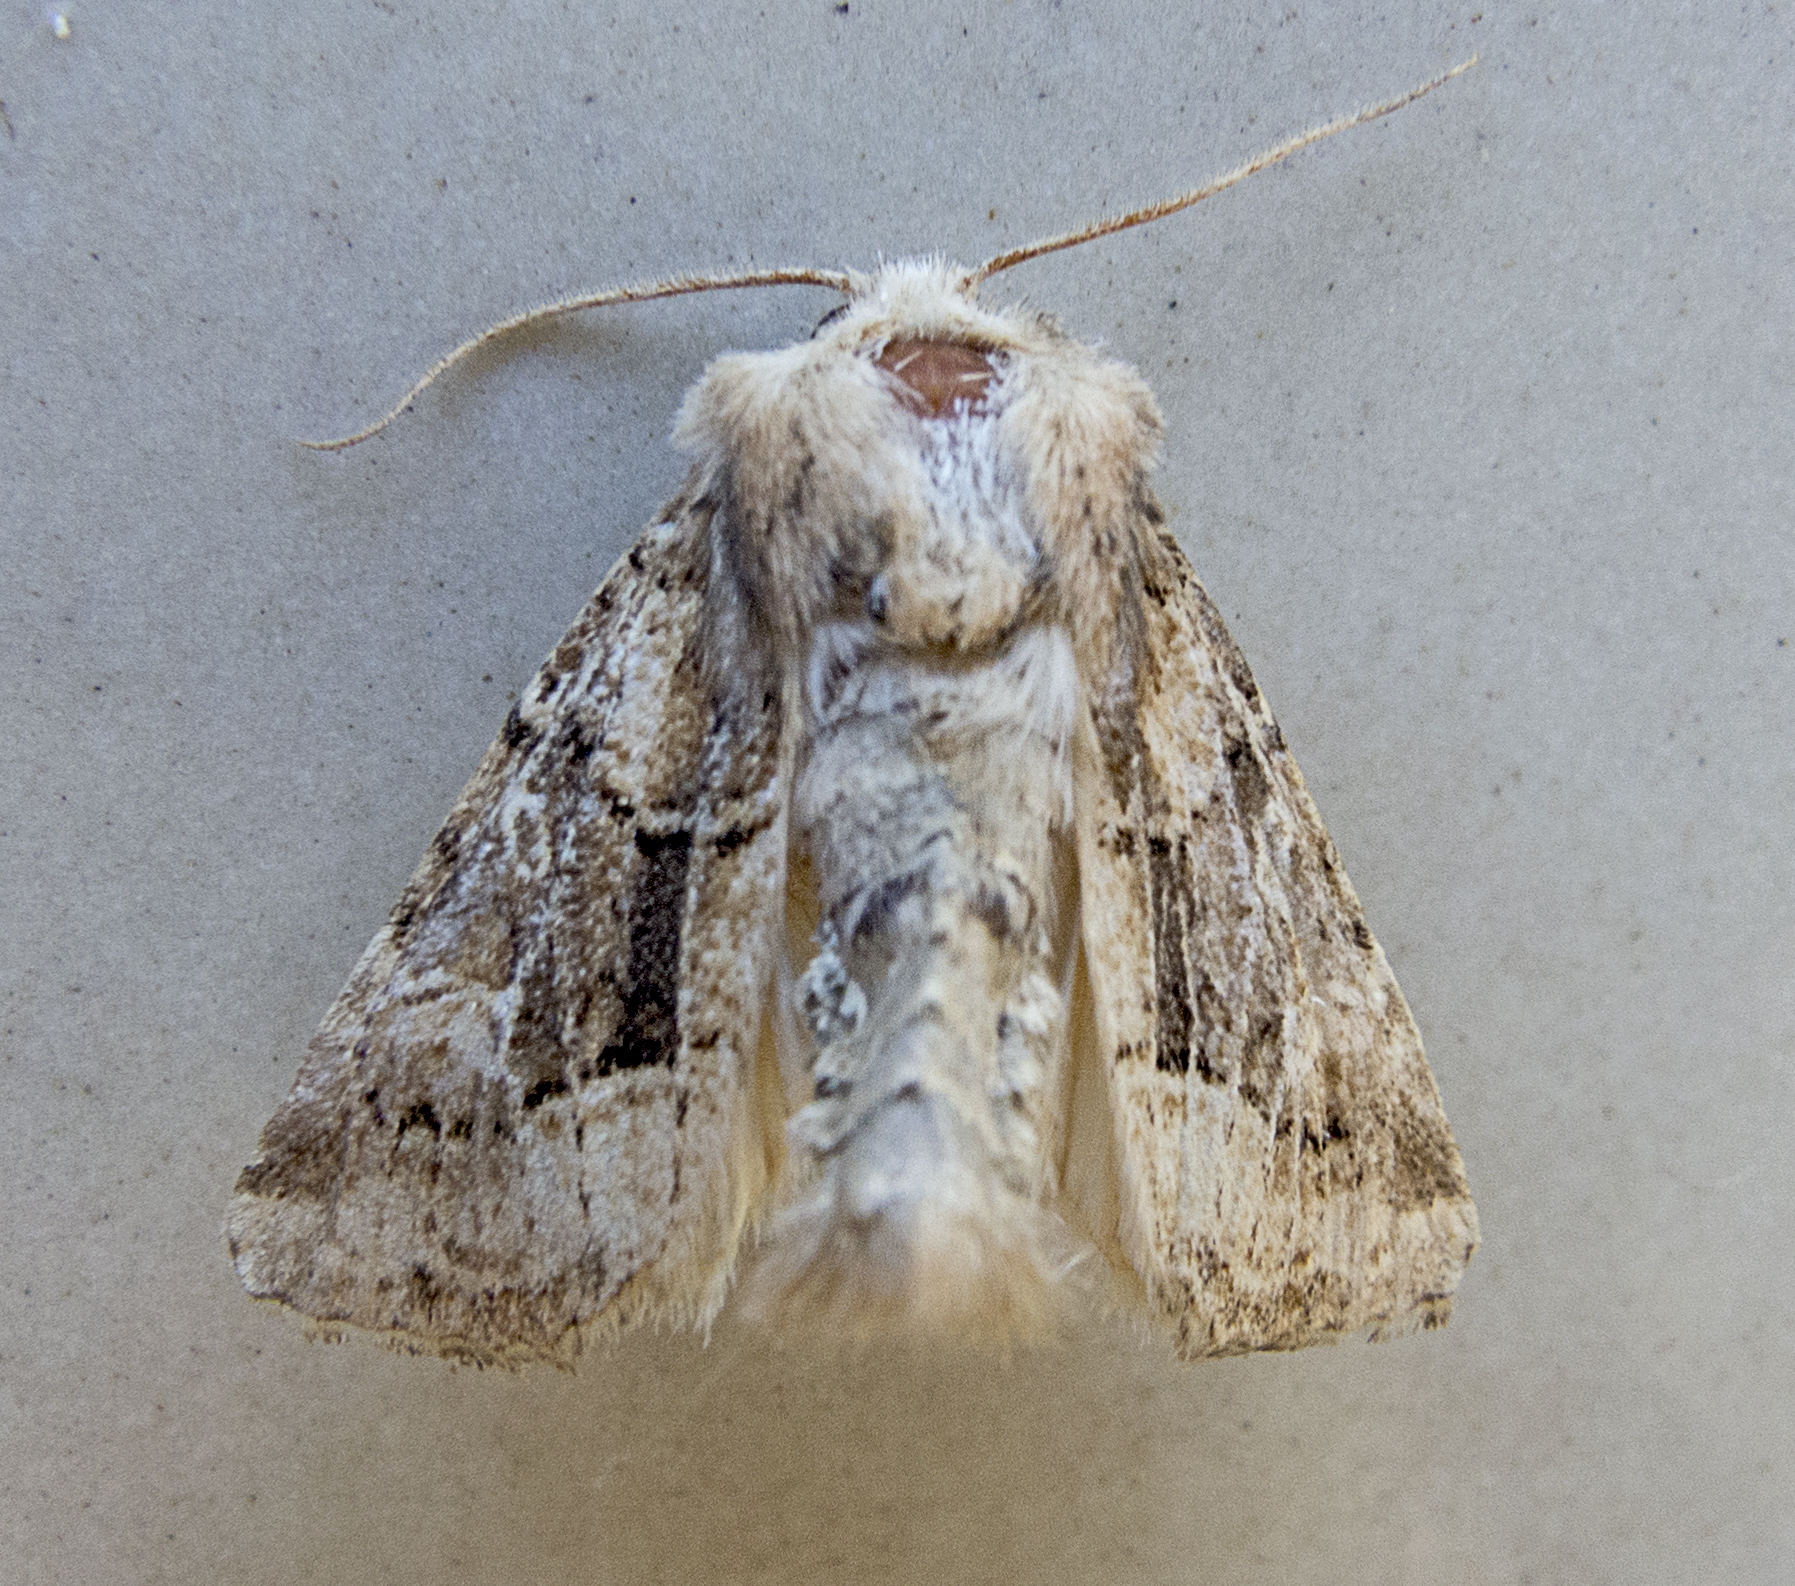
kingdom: Animalia
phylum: Arthropoda
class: Insecta
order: Lepidoptera
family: Noctuidae
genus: Luperina
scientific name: Luperina dumerilii
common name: Dumeril's rustic
